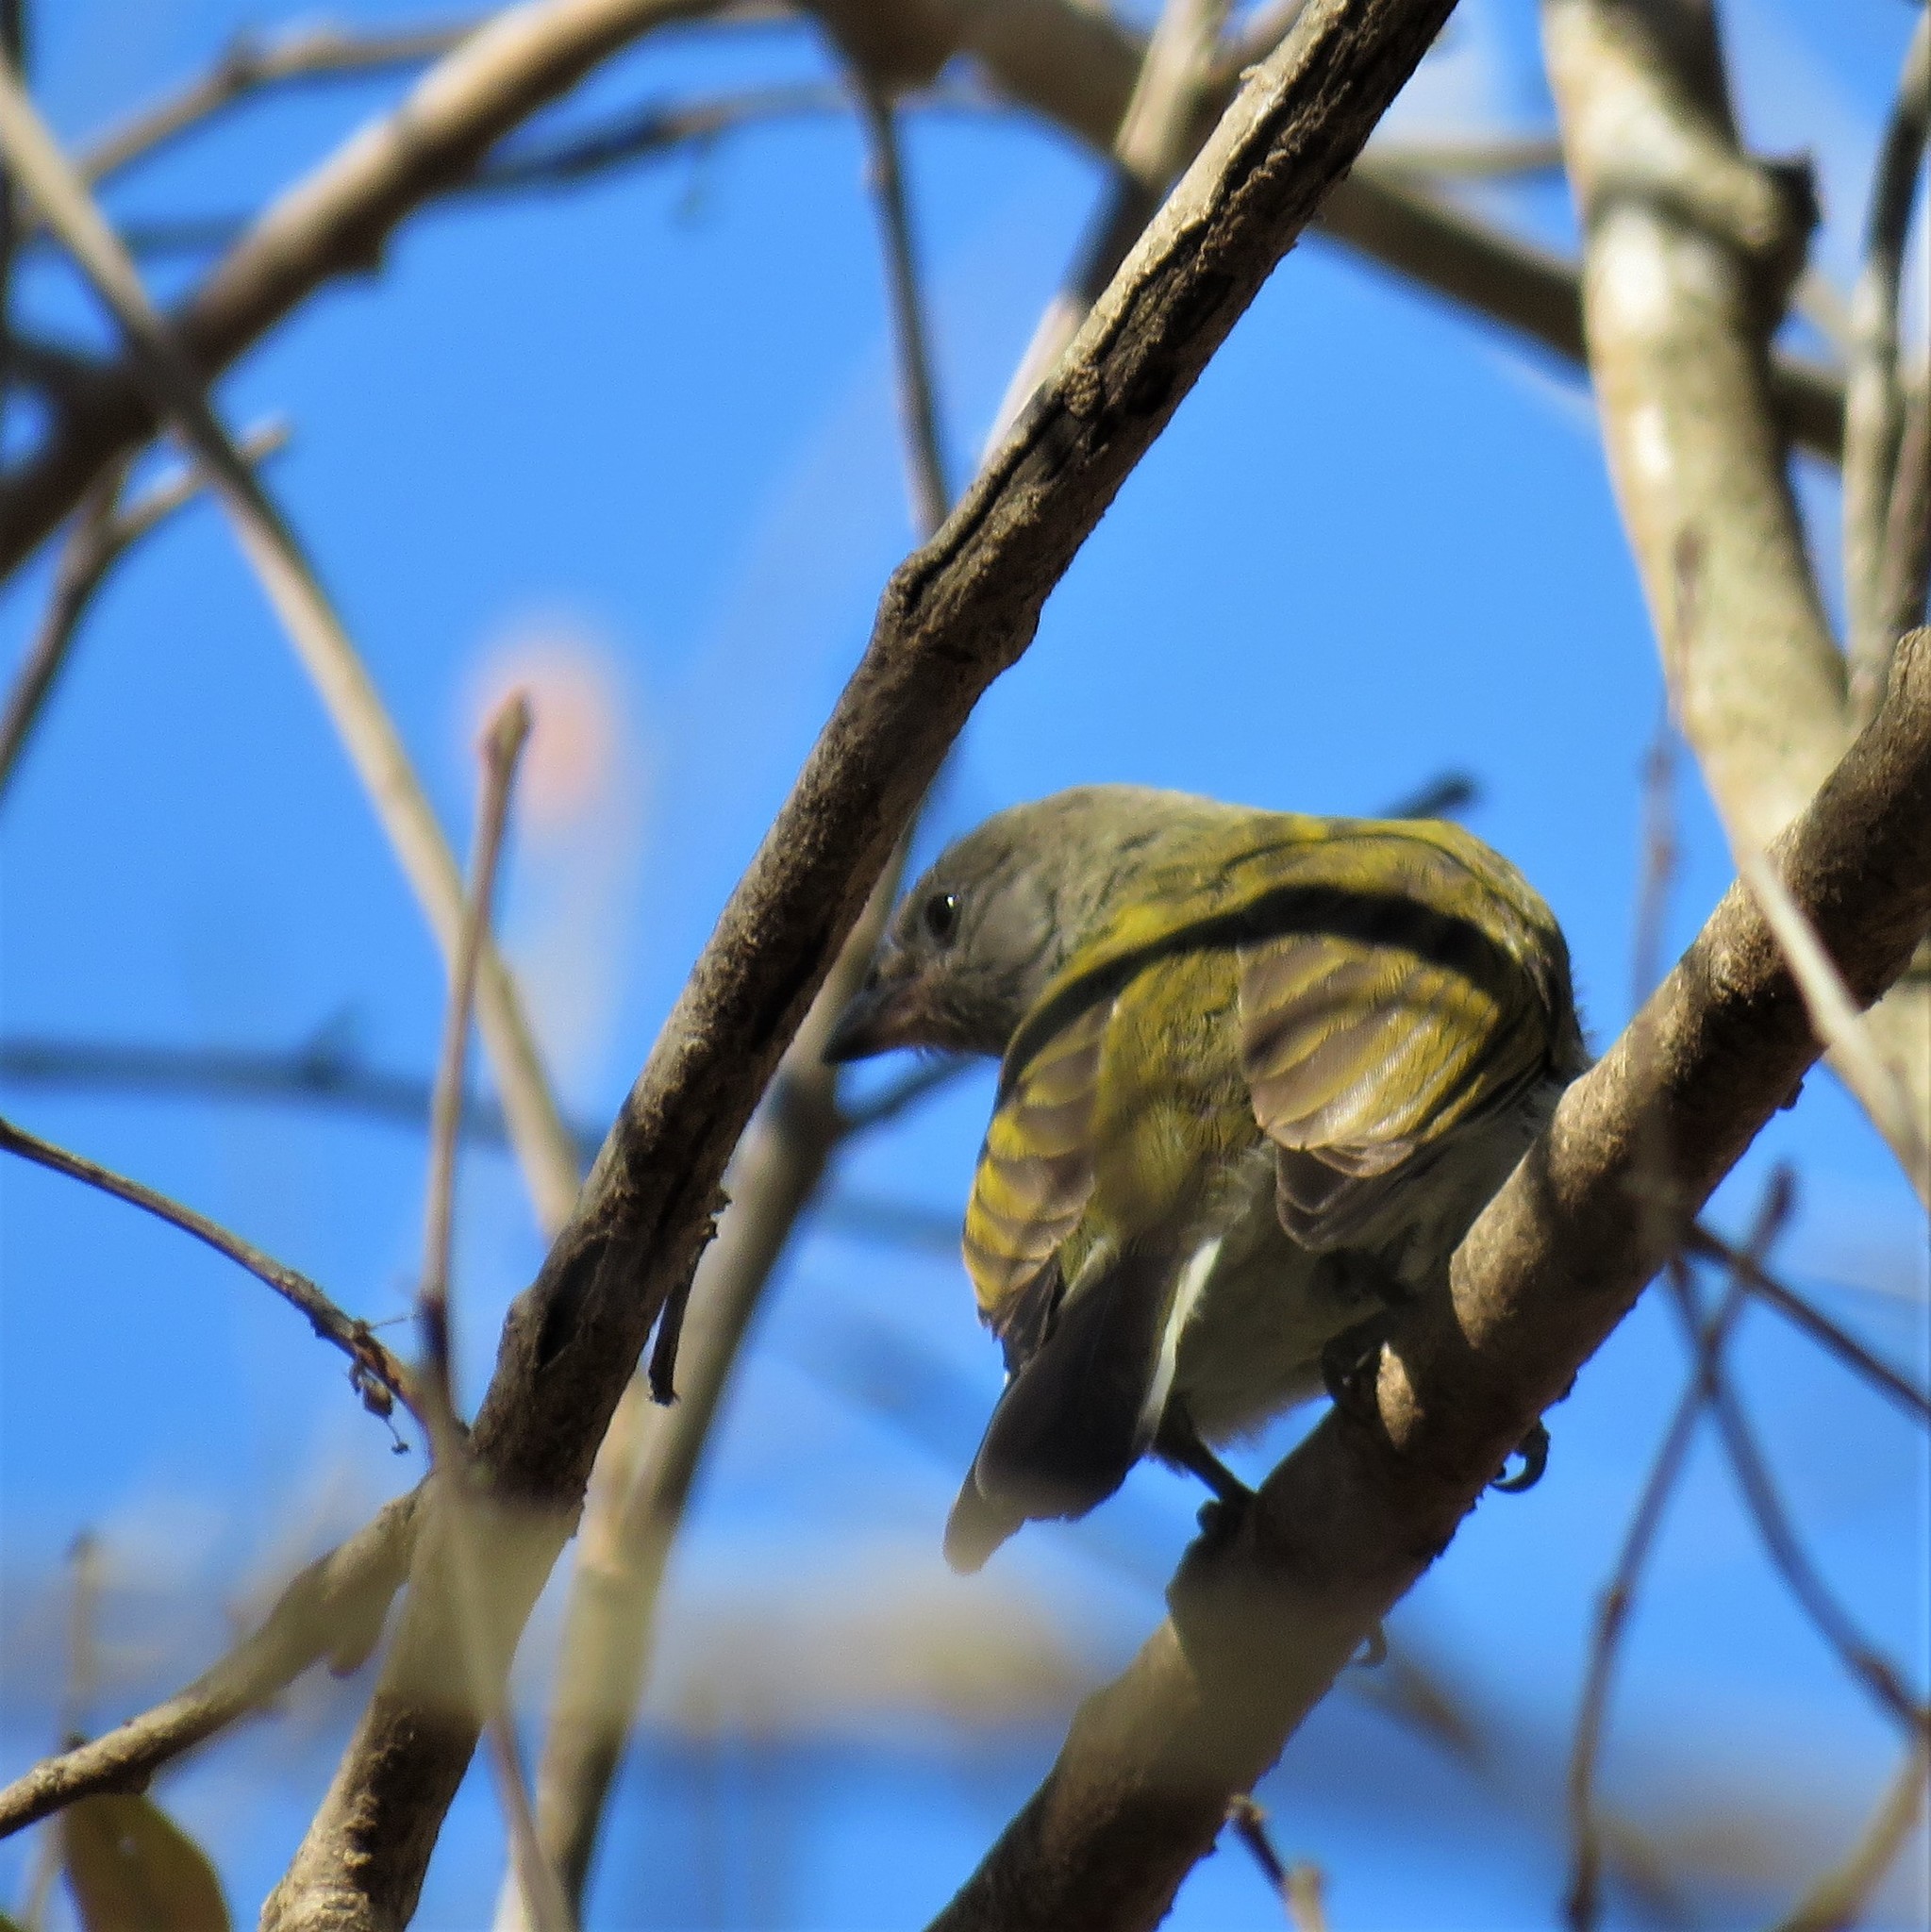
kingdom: Animalia
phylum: Chordata
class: Aves
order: Piciformes
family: Indicatoridae
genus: Indicator
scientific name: Indicator minor
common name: Lesser honeyguide
